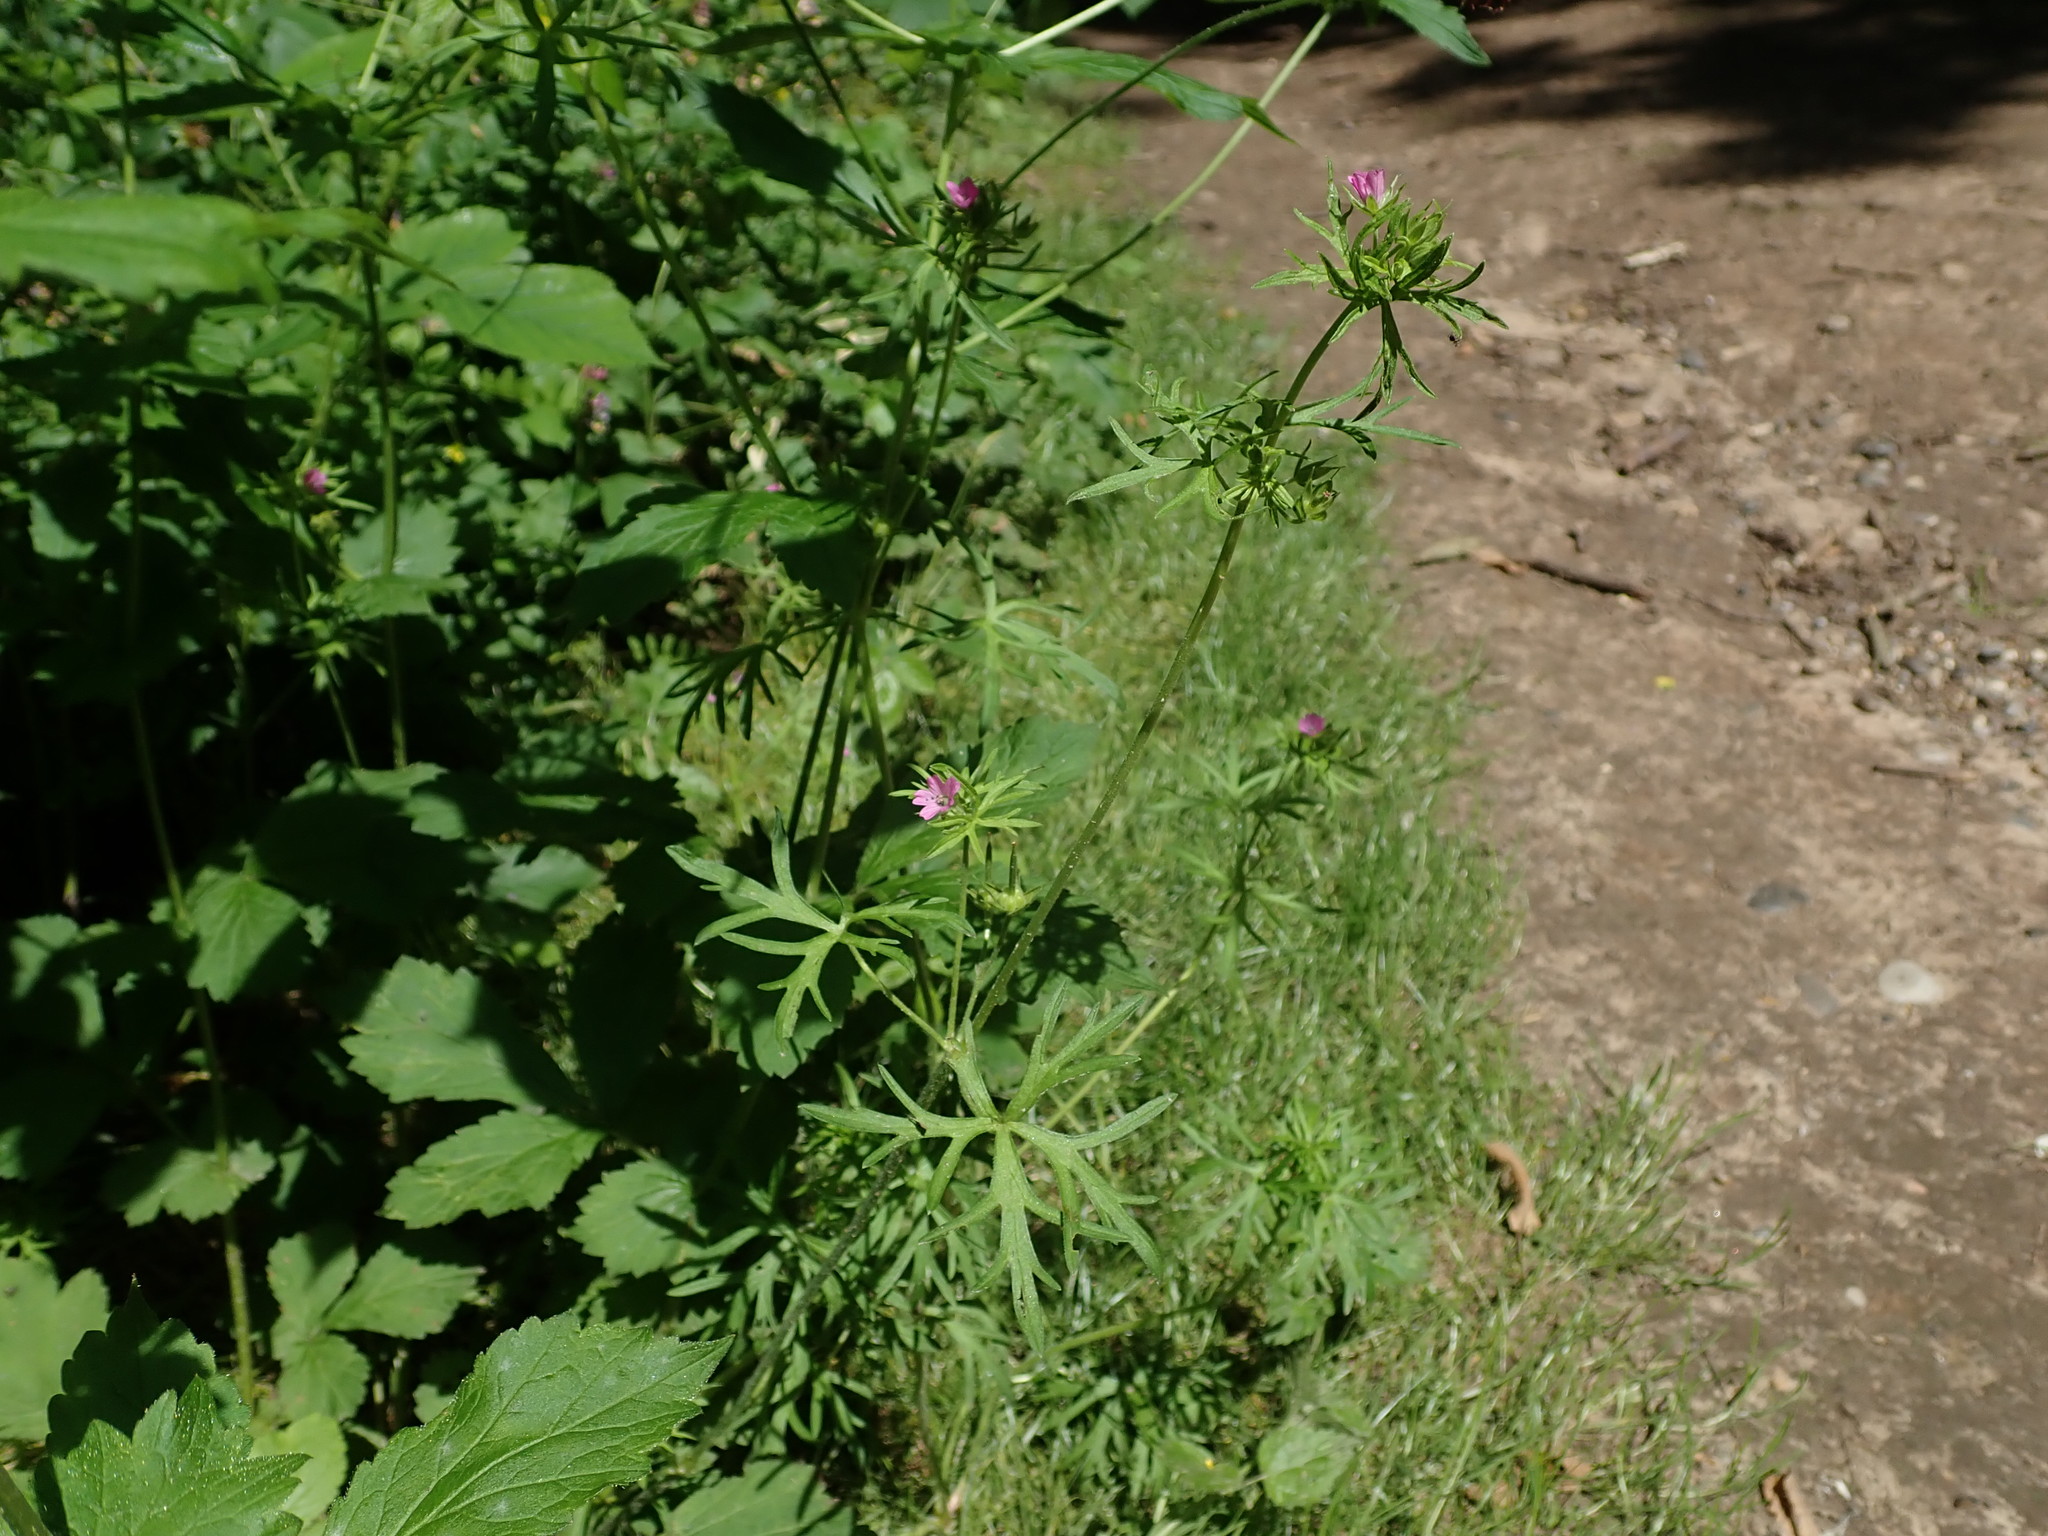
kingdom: Plantae
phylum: Tracheophyta
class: Magnoliopsida
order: Geraniales
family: Geraniaceae
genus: Geranium
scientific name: Geranium dissectum
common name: Cut-leaved crane's-bill
